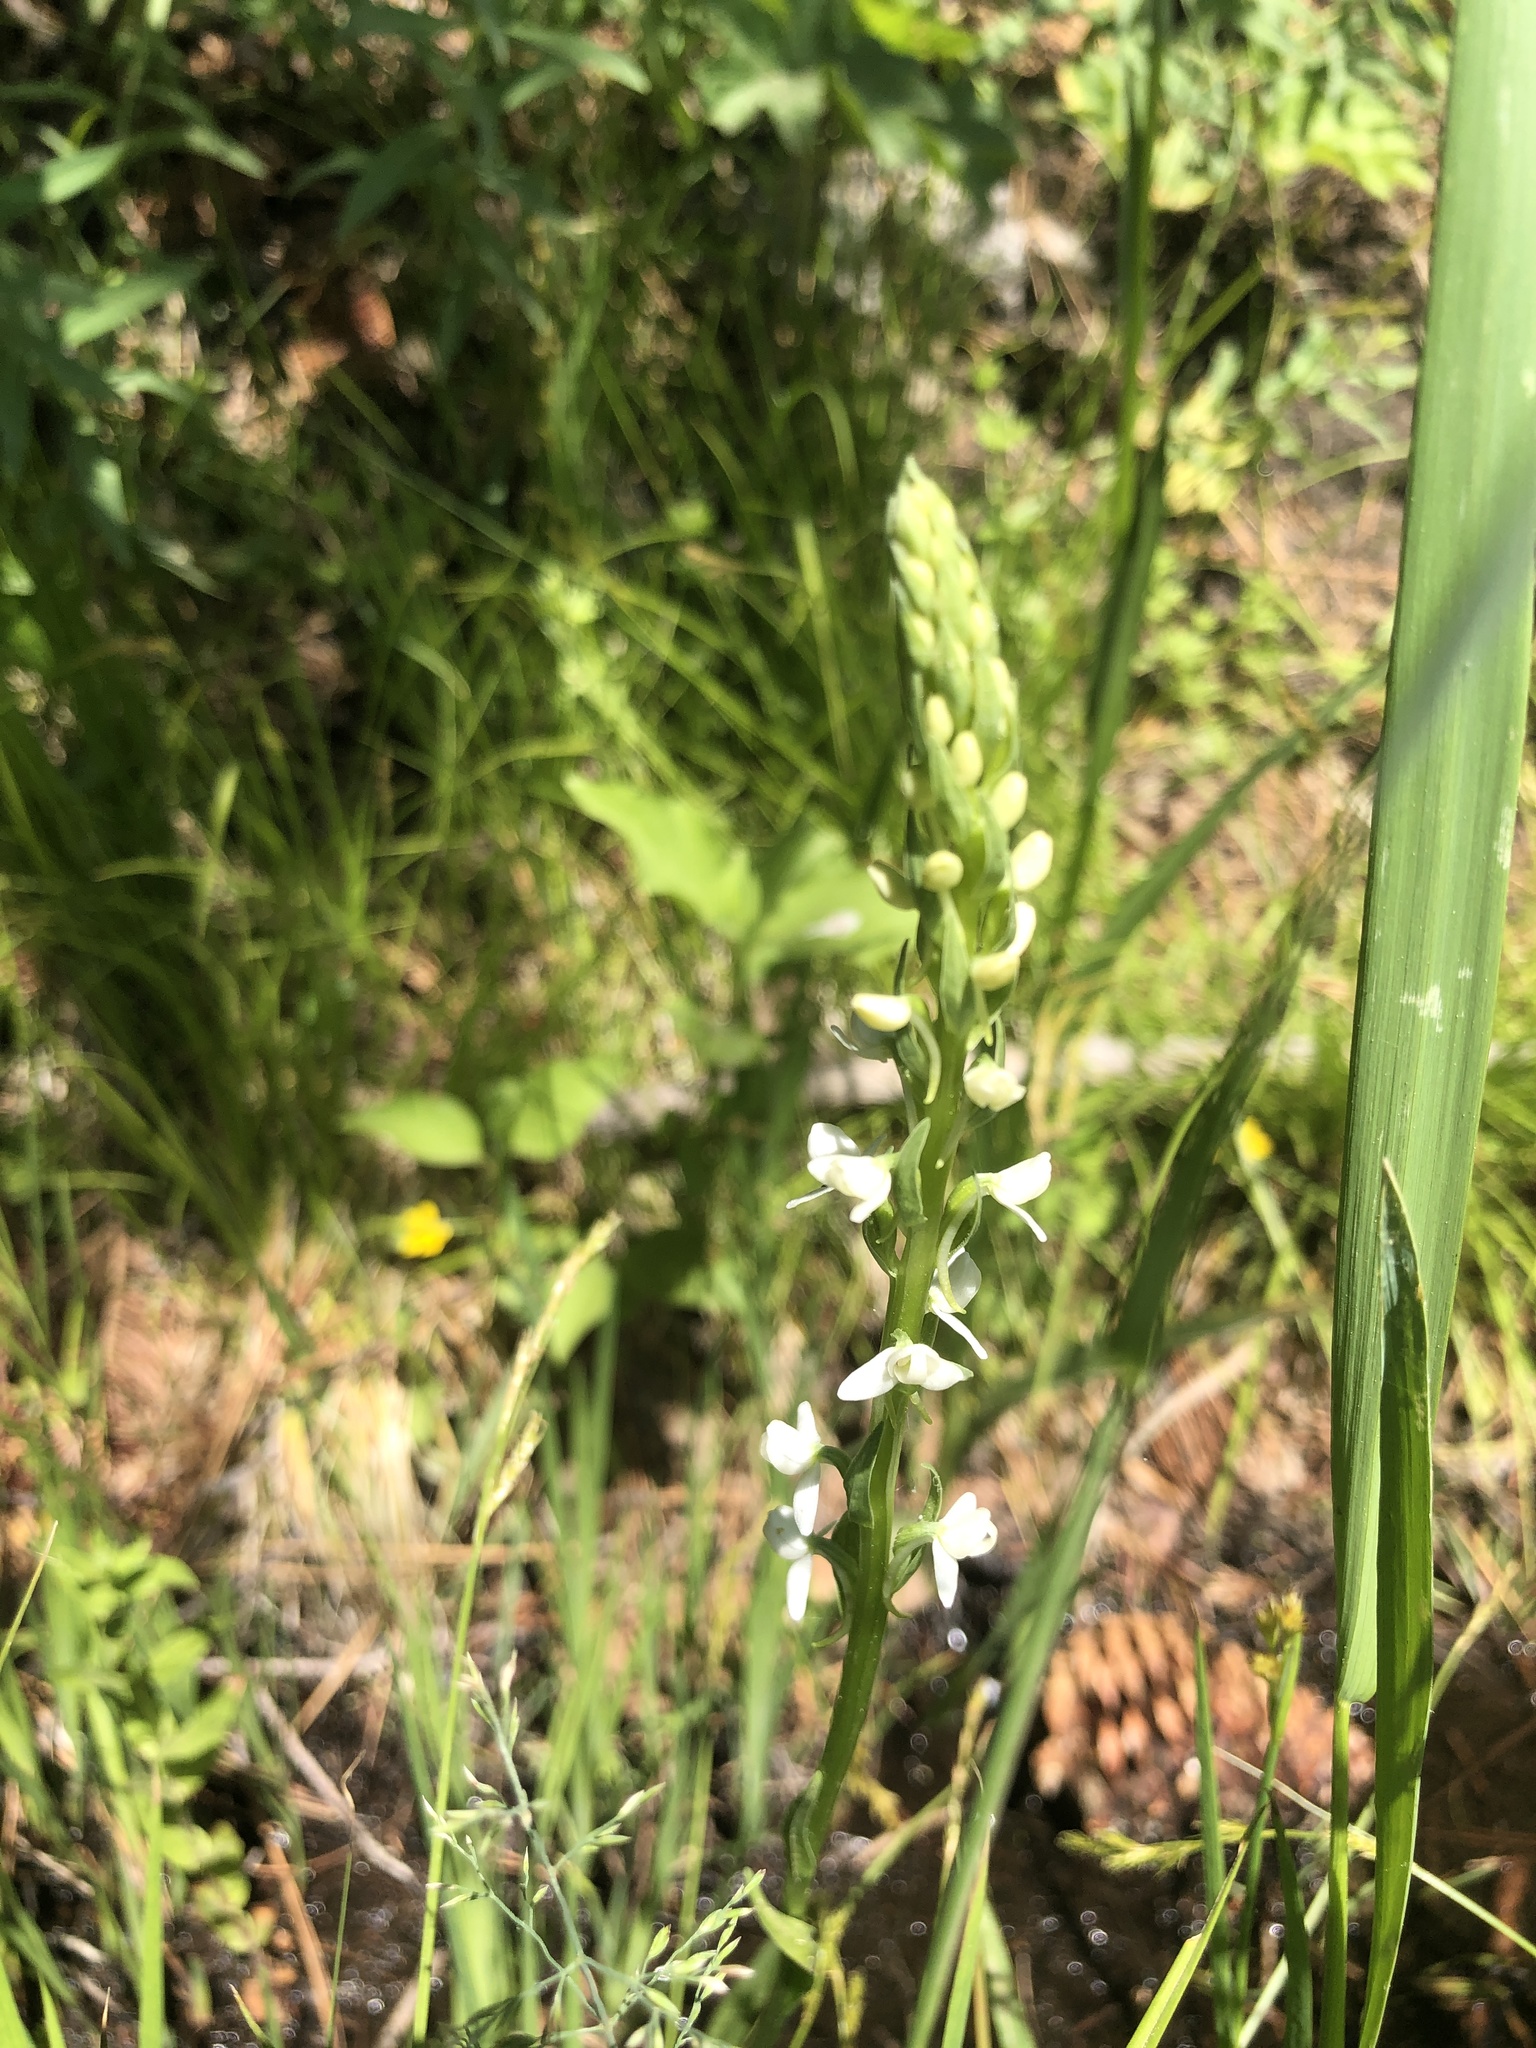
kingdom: Plantae
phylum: Tracheophyta
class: Liliopsida
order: Asparagales
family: Orchidaceae
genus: Platanthera
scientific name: Platanthera dilatata
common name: Bog candles
